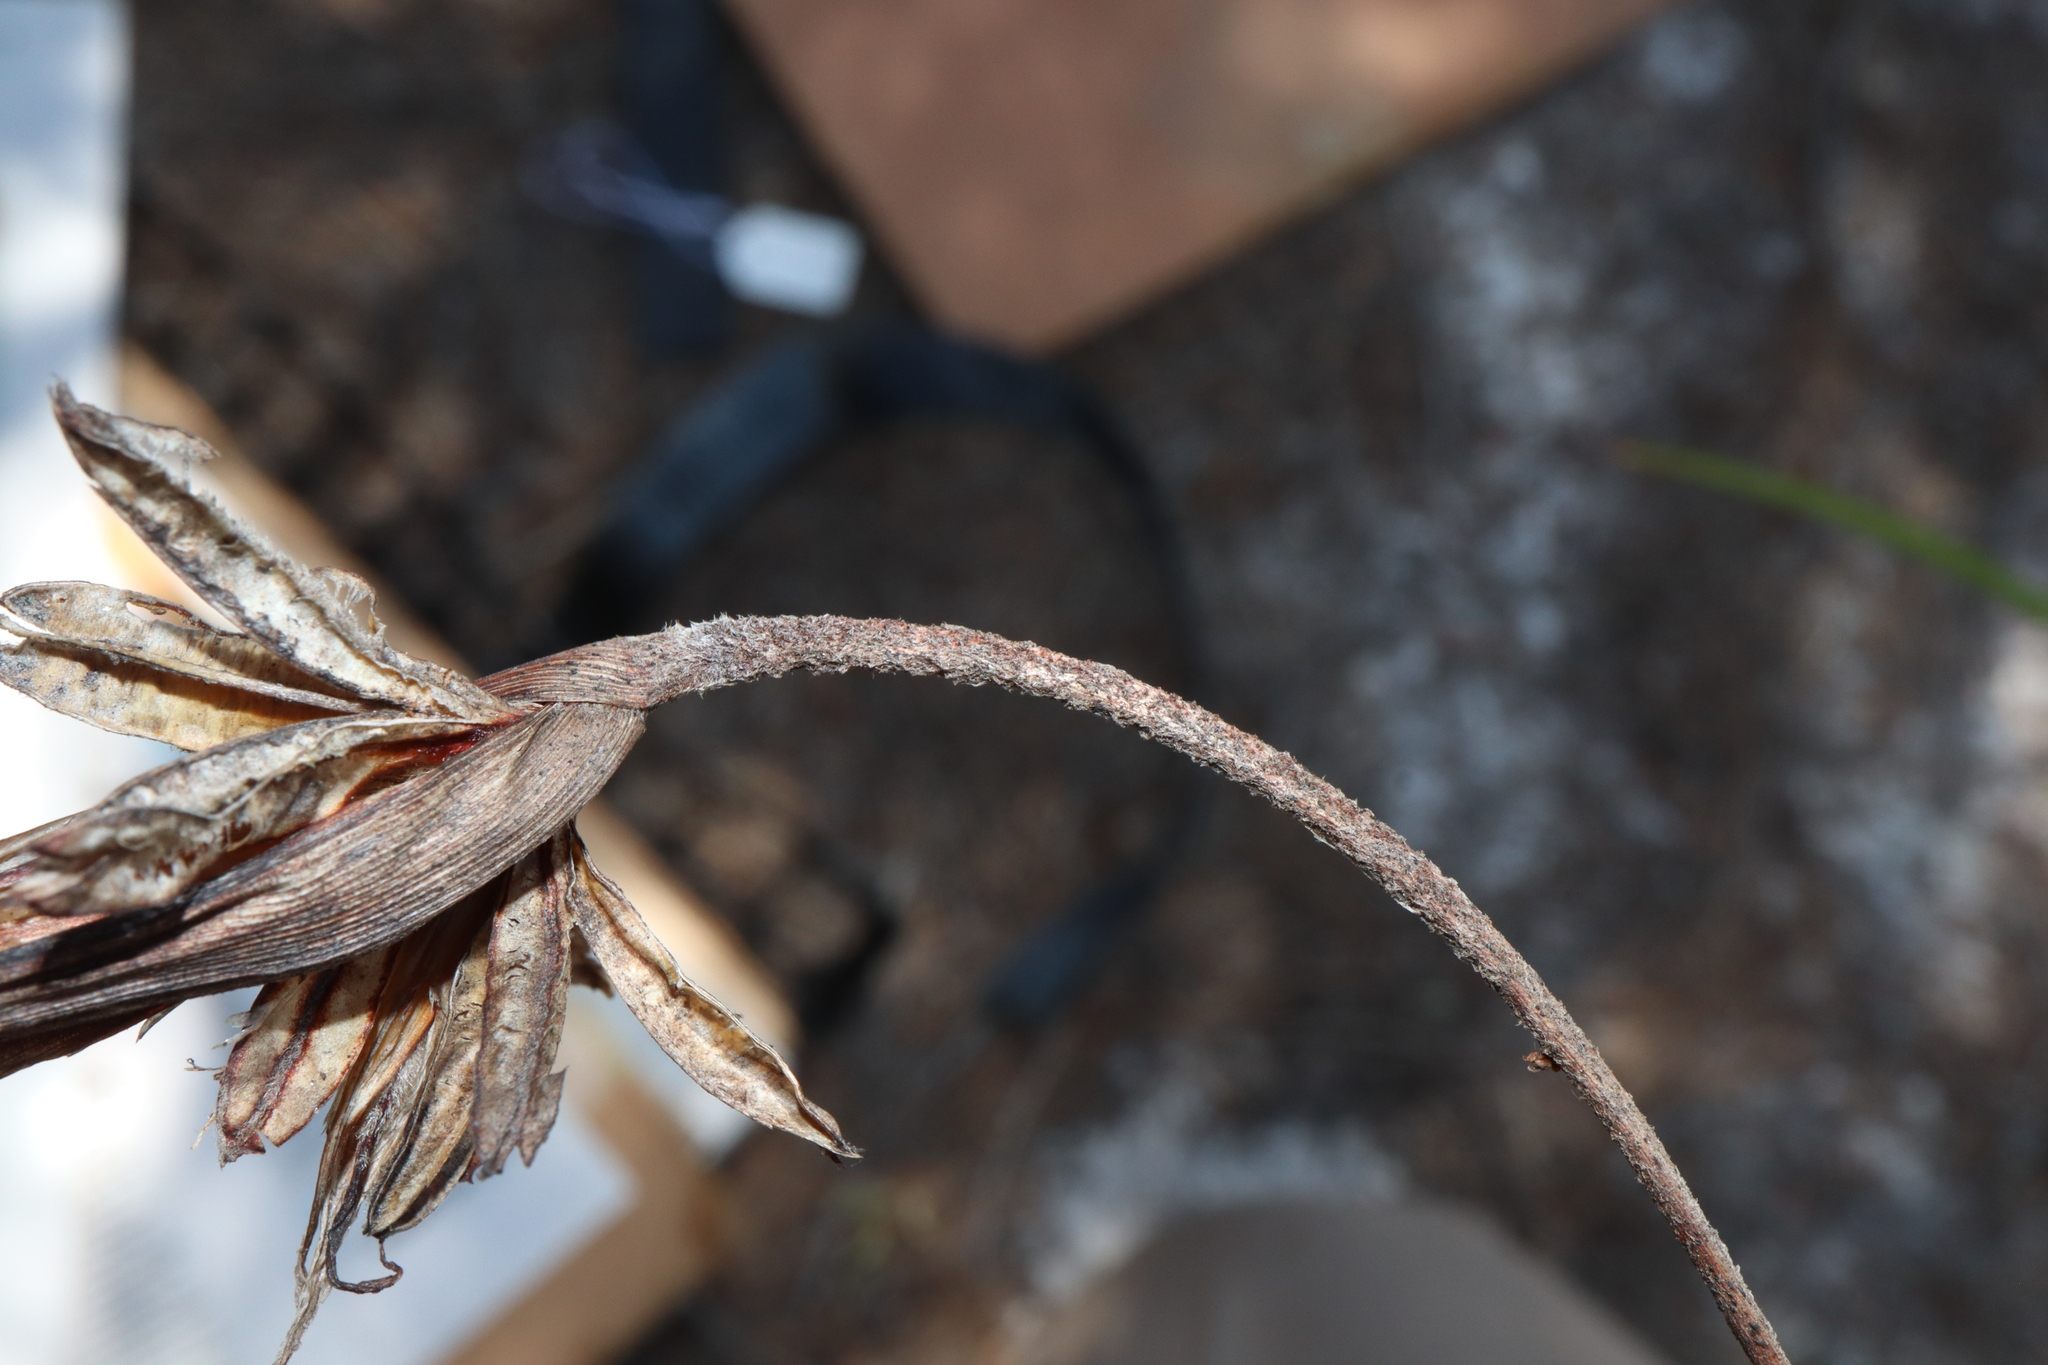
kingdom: Plantae
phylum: Tracheophyta
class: Liliopsida
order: Asparagales
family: Iridaceae
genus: Patersonia
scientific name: Patersonia sericea
